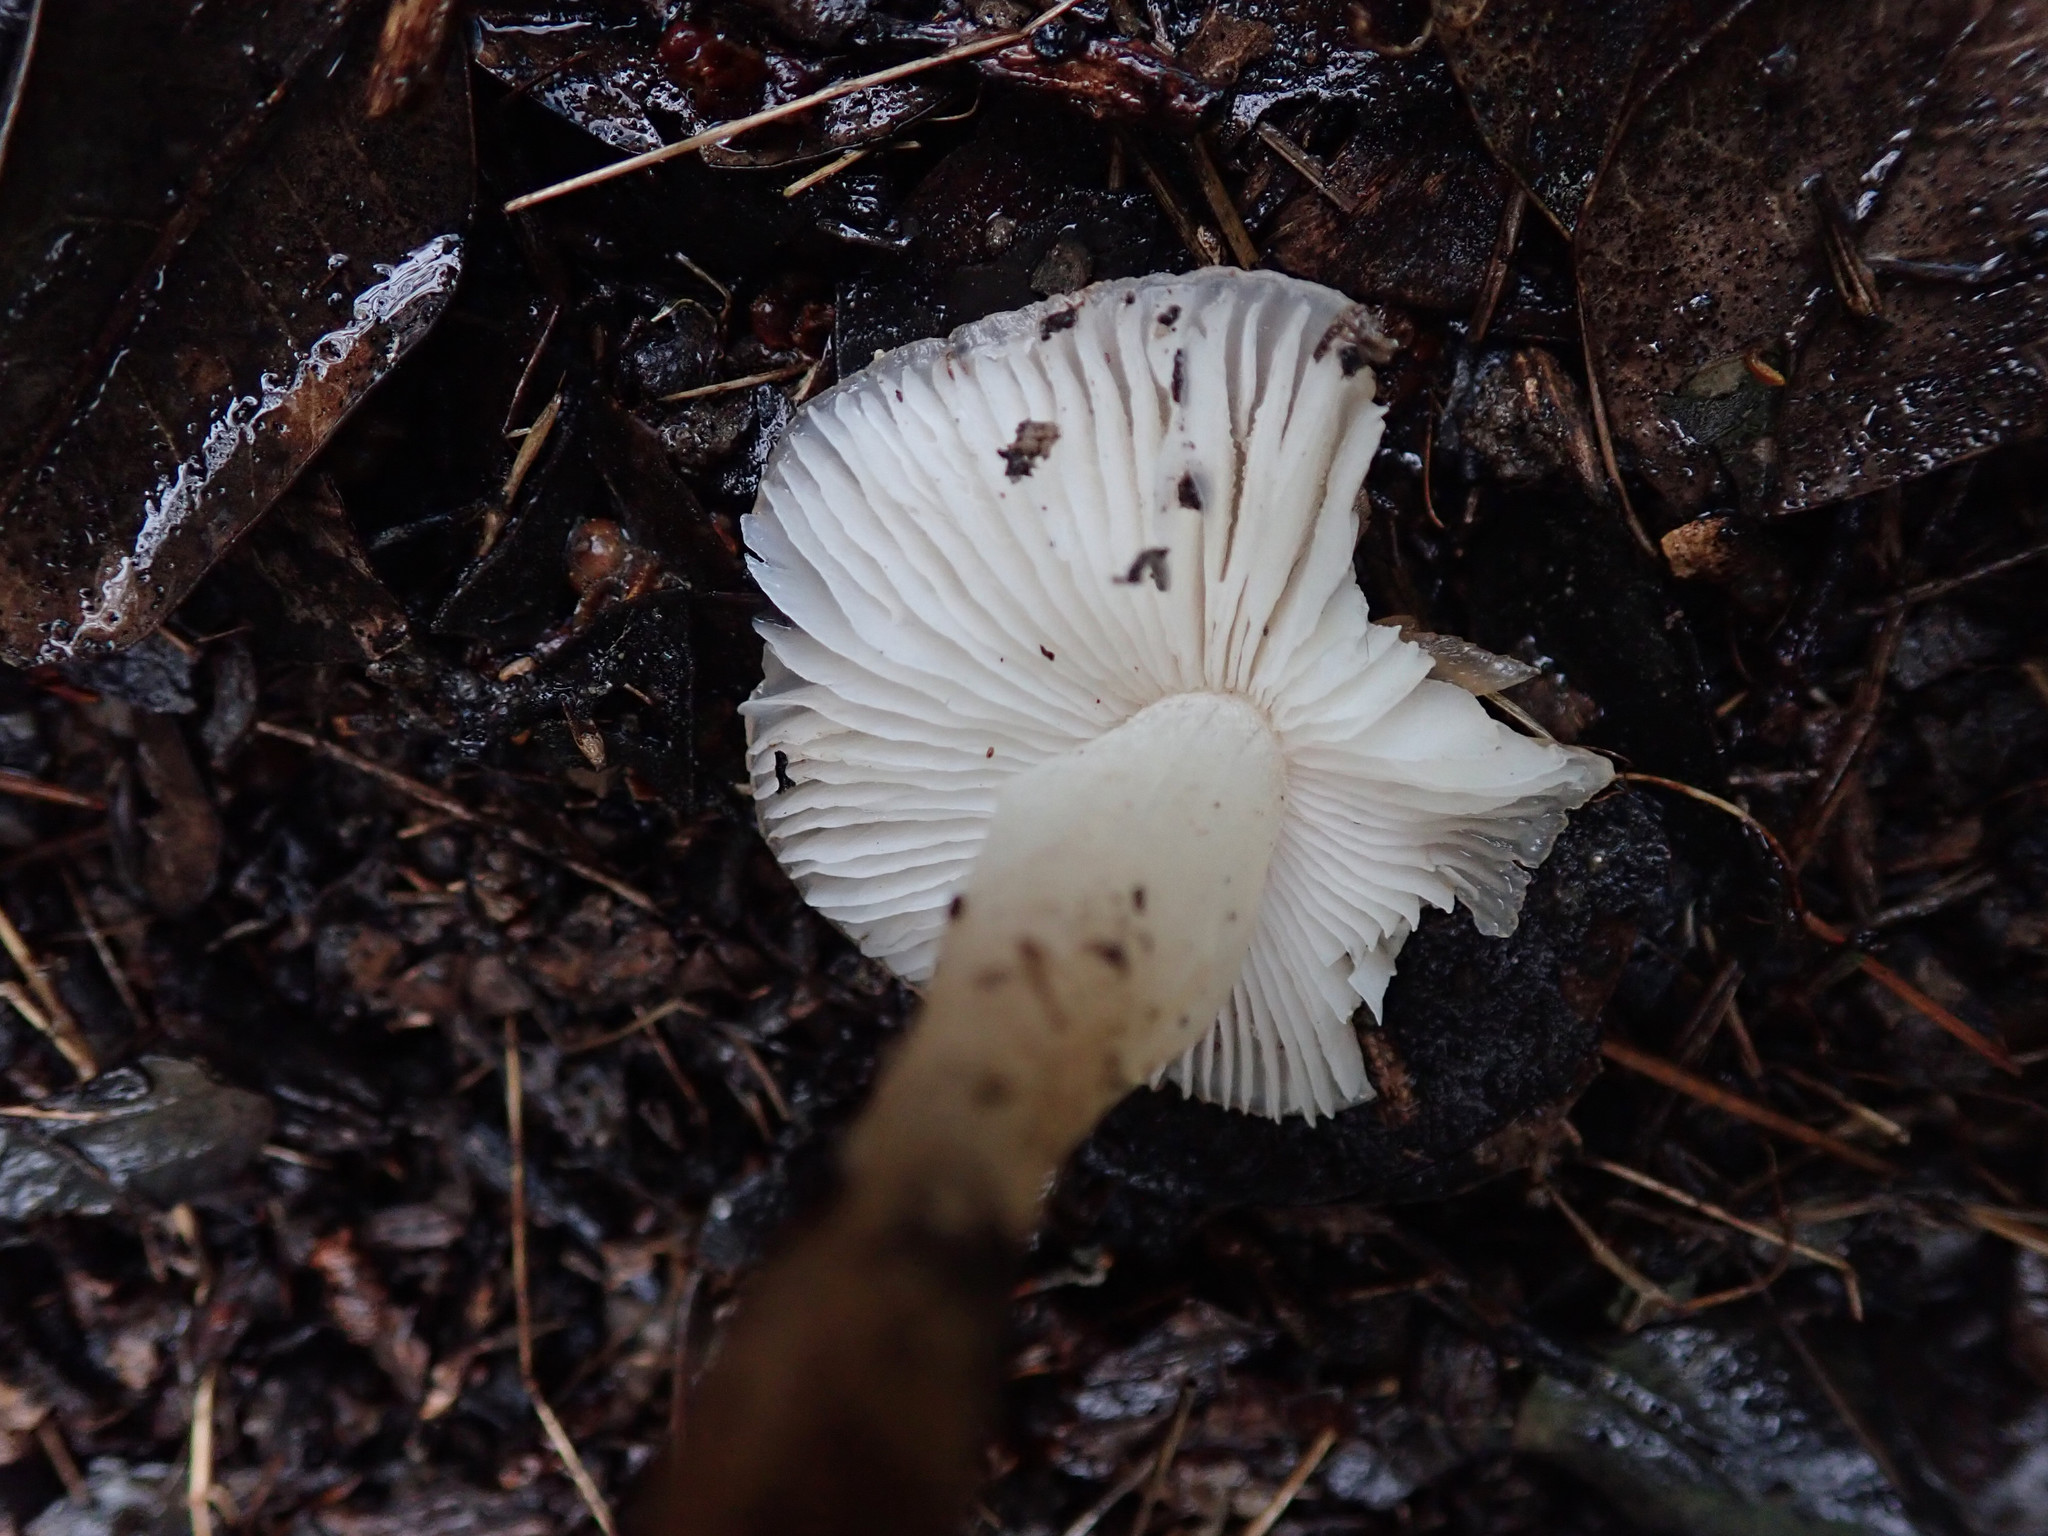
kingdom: Fungi
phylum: Basidiomycota
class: Agaricomycetes
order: Agaricales
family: Tricholomataceae
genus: Leucoinocybe
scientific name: Leucoinocybe lenta
